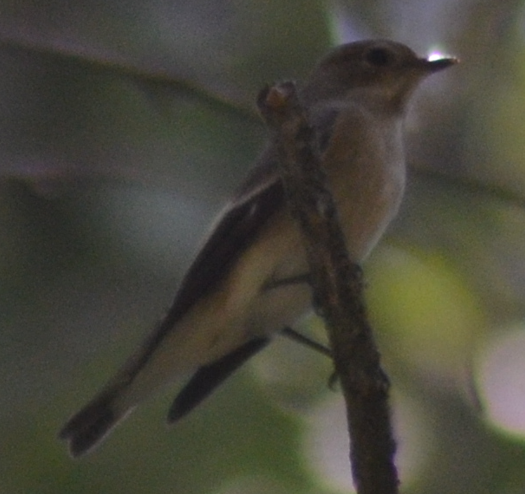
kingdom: Animalia
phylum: Chordata
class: Aves
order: Passeriformes
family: Muscicapidae
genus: Ficedula
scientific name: Ficedula hypoleuca
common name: European pied flycatcher
